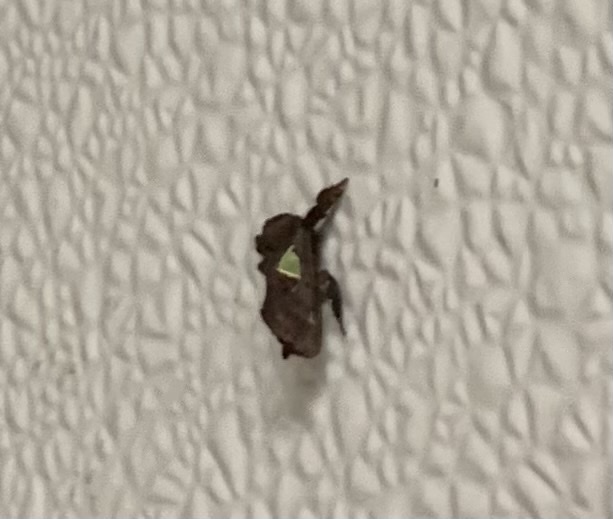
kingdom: Animalia
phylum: Arthropoda
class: Insecta
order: Lepidoptera
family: Limacodidae
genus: Euclea
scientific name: Euclea delphinii
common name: Spiny oak-slug moth
